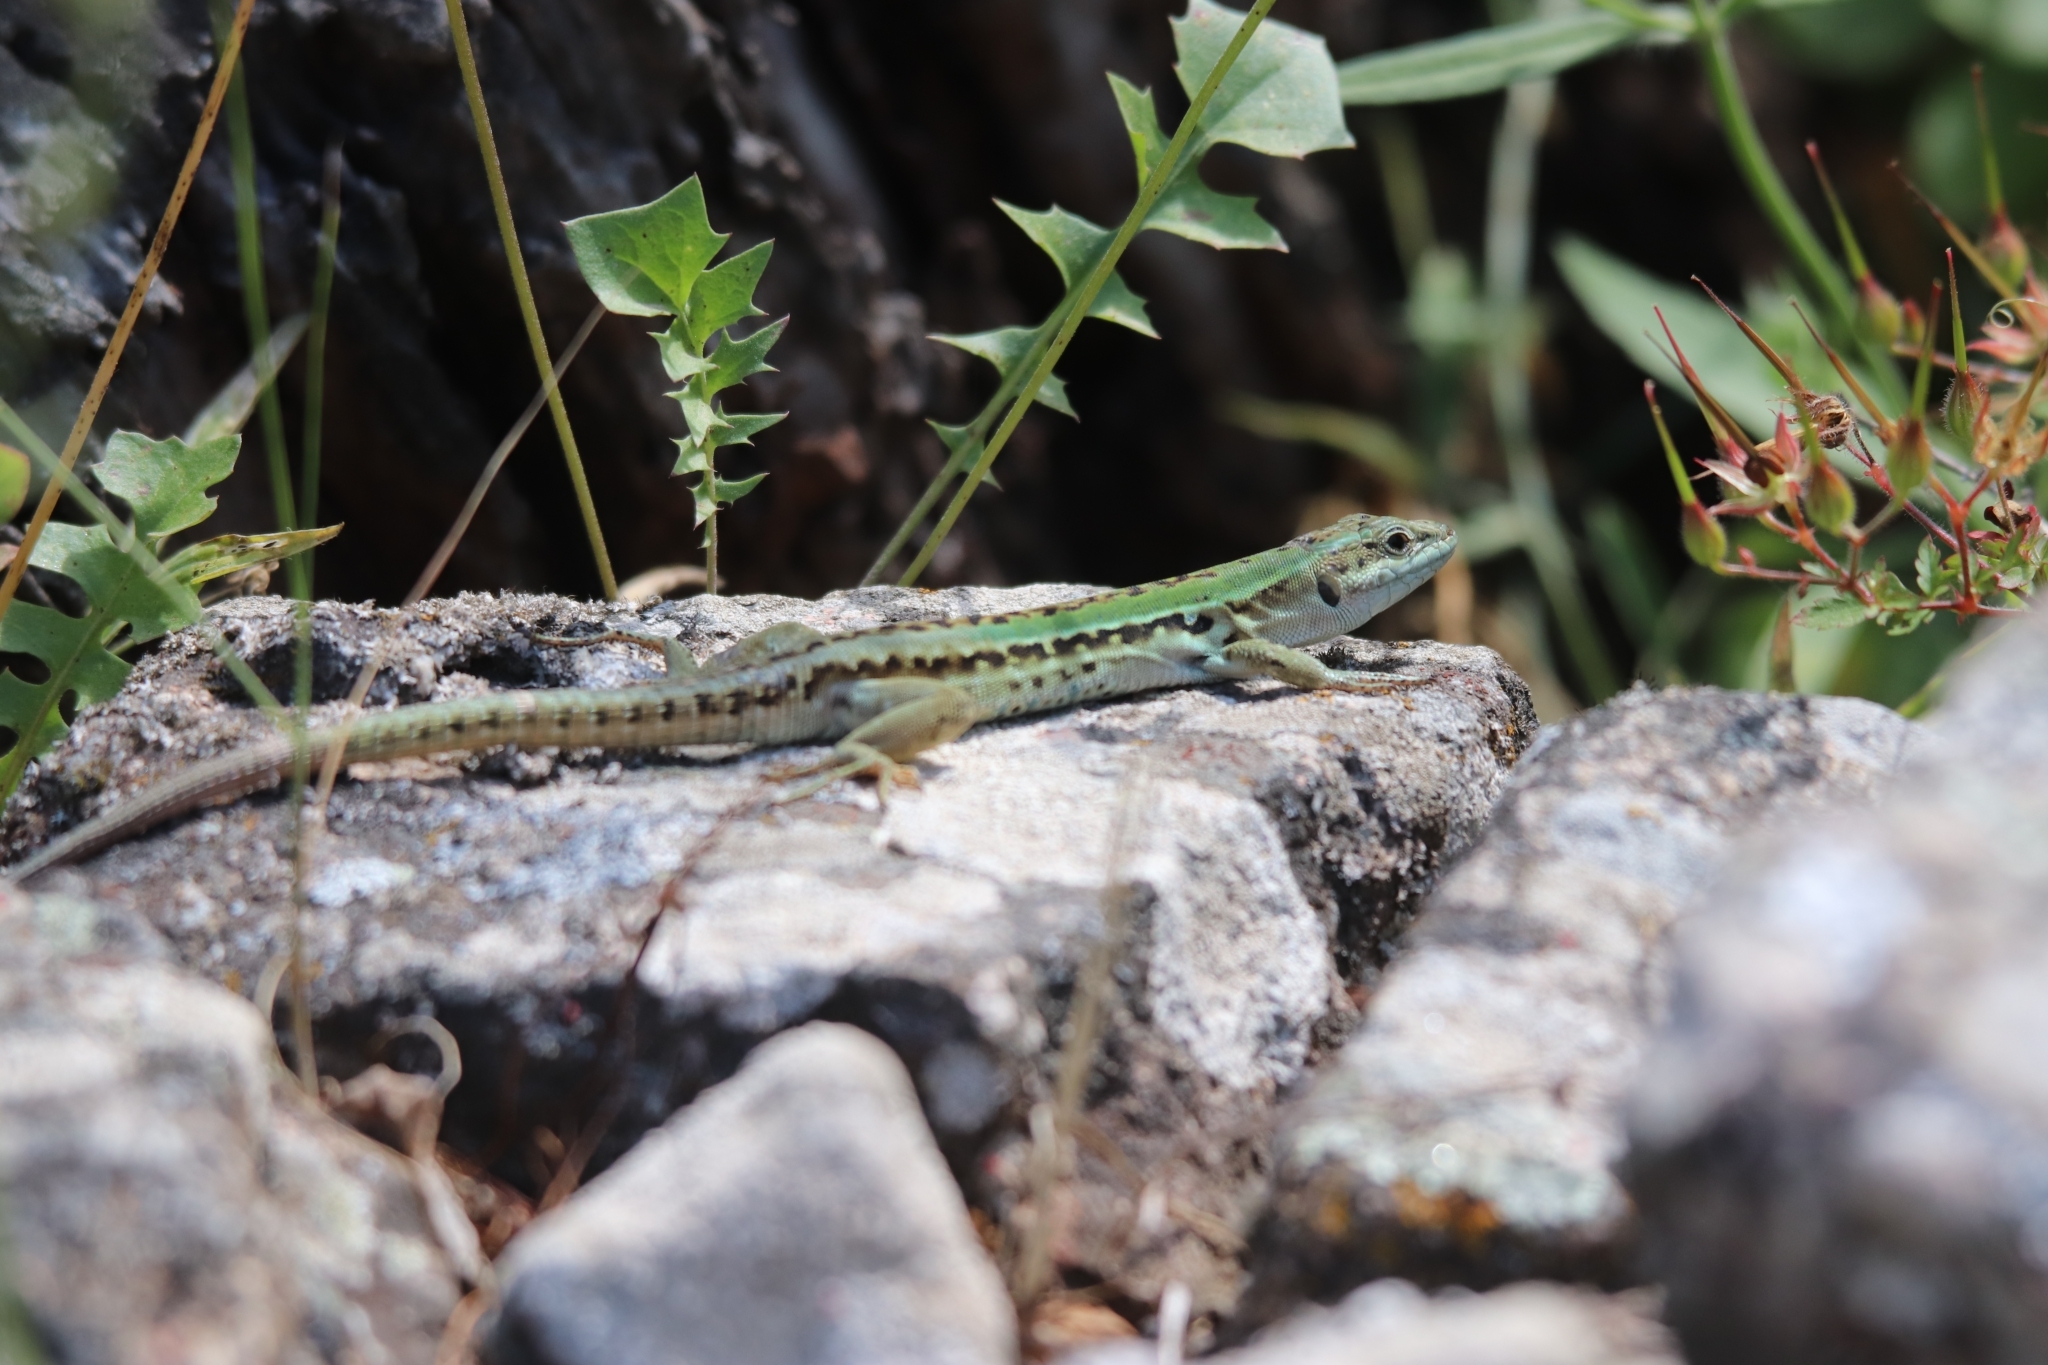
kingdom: Animalia
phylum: Chordata
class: Squamata
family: Lacertidae
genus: Podarcis
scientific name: Podarcis siculus
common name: Italian wall lizard
